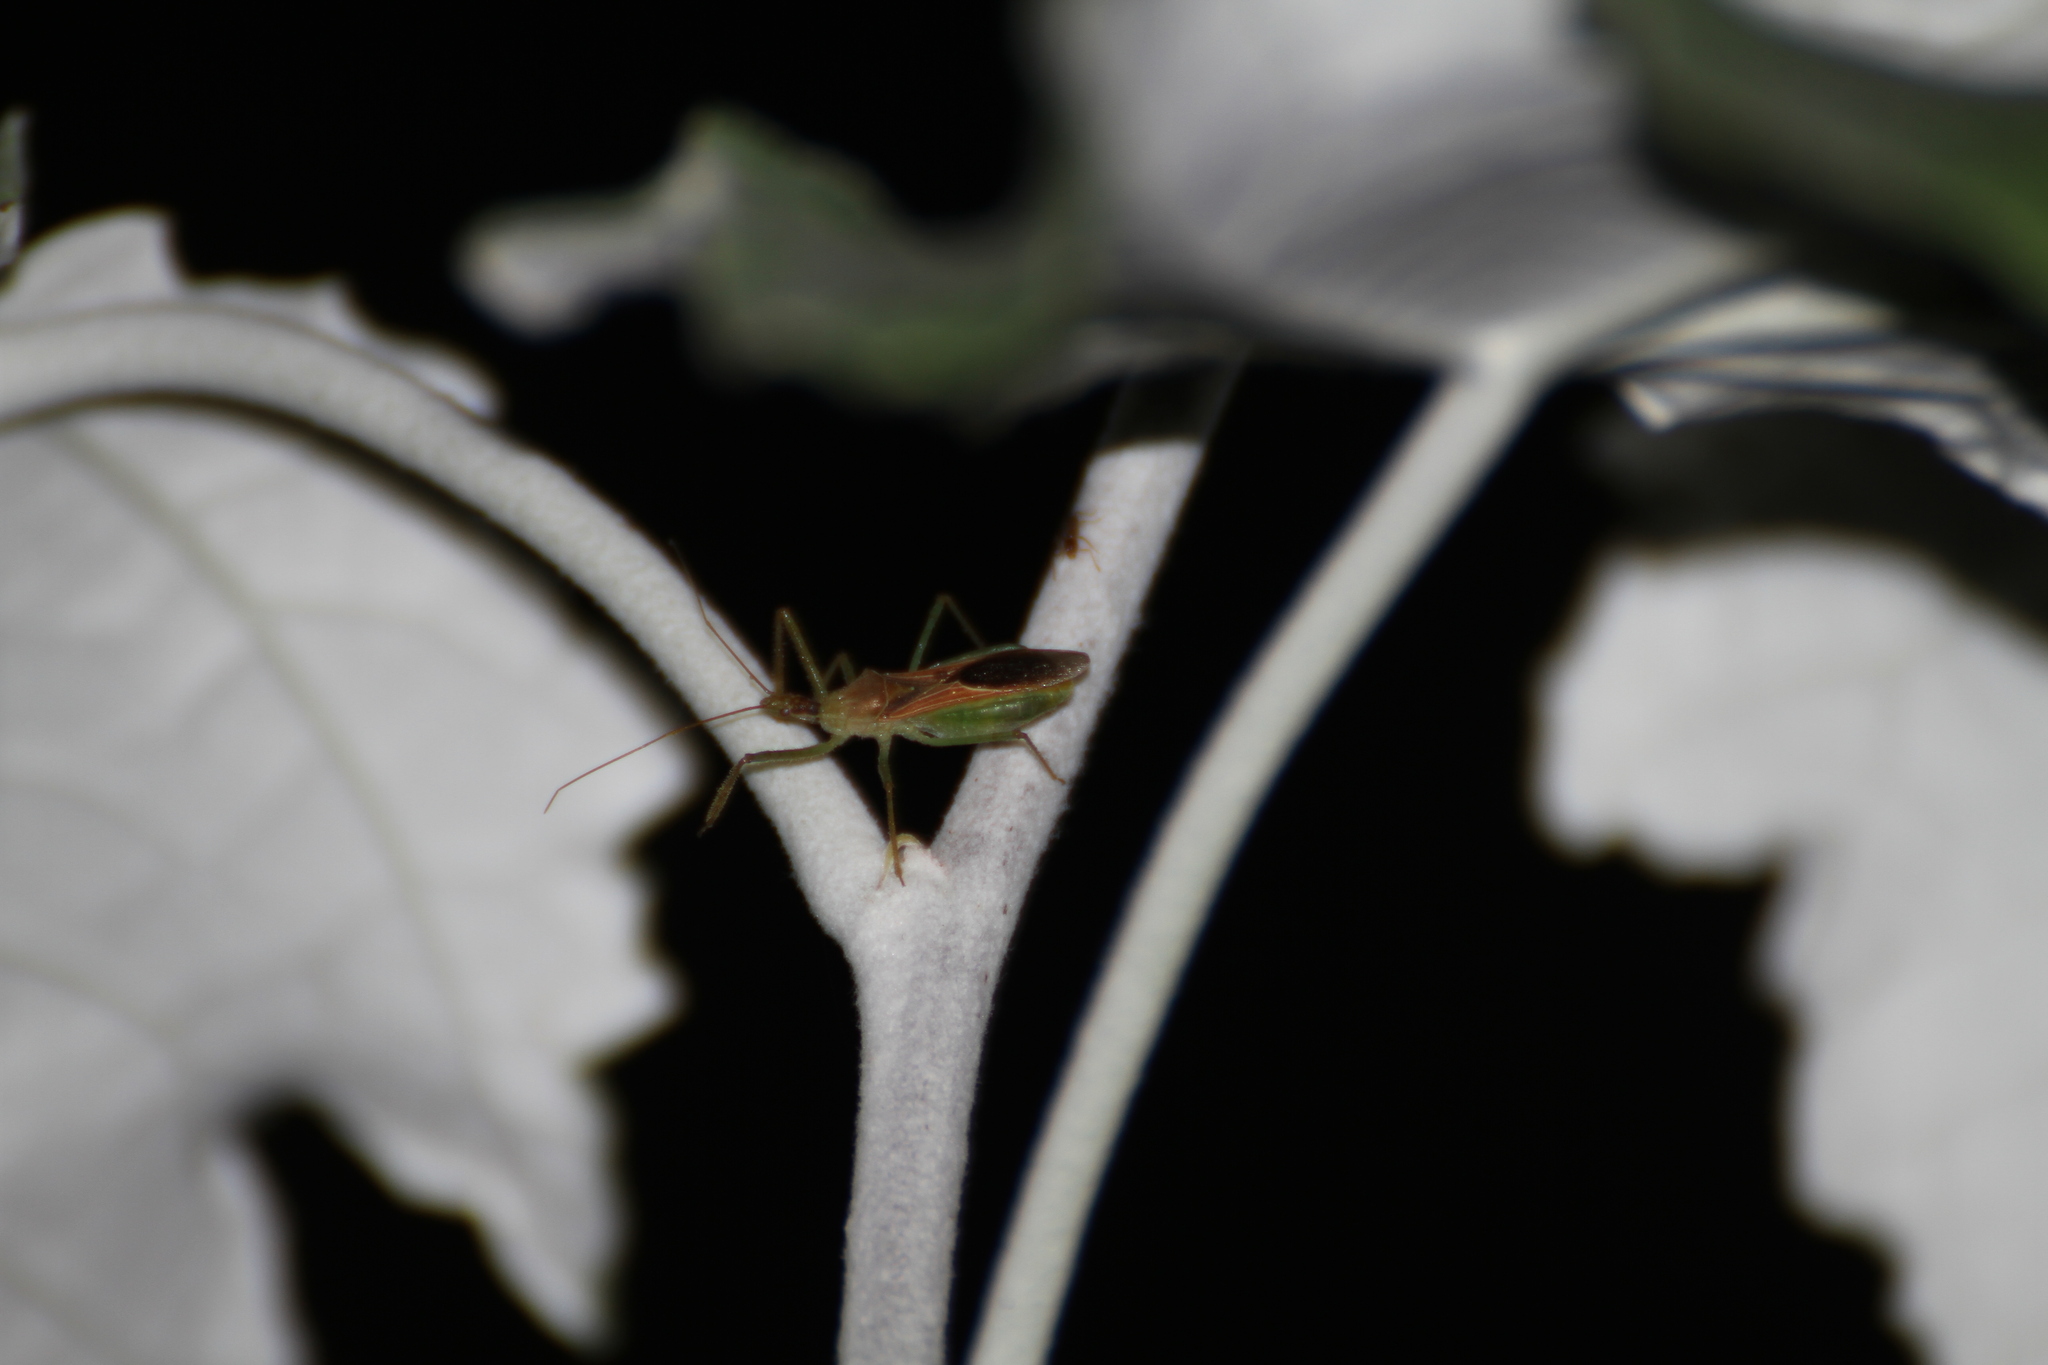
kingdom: Animalia
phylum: Arthropoda
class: Insecta
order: Hemiptera
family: Reduviidae
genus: Zelus
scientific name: Zelus renardii
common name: Assassin bug
